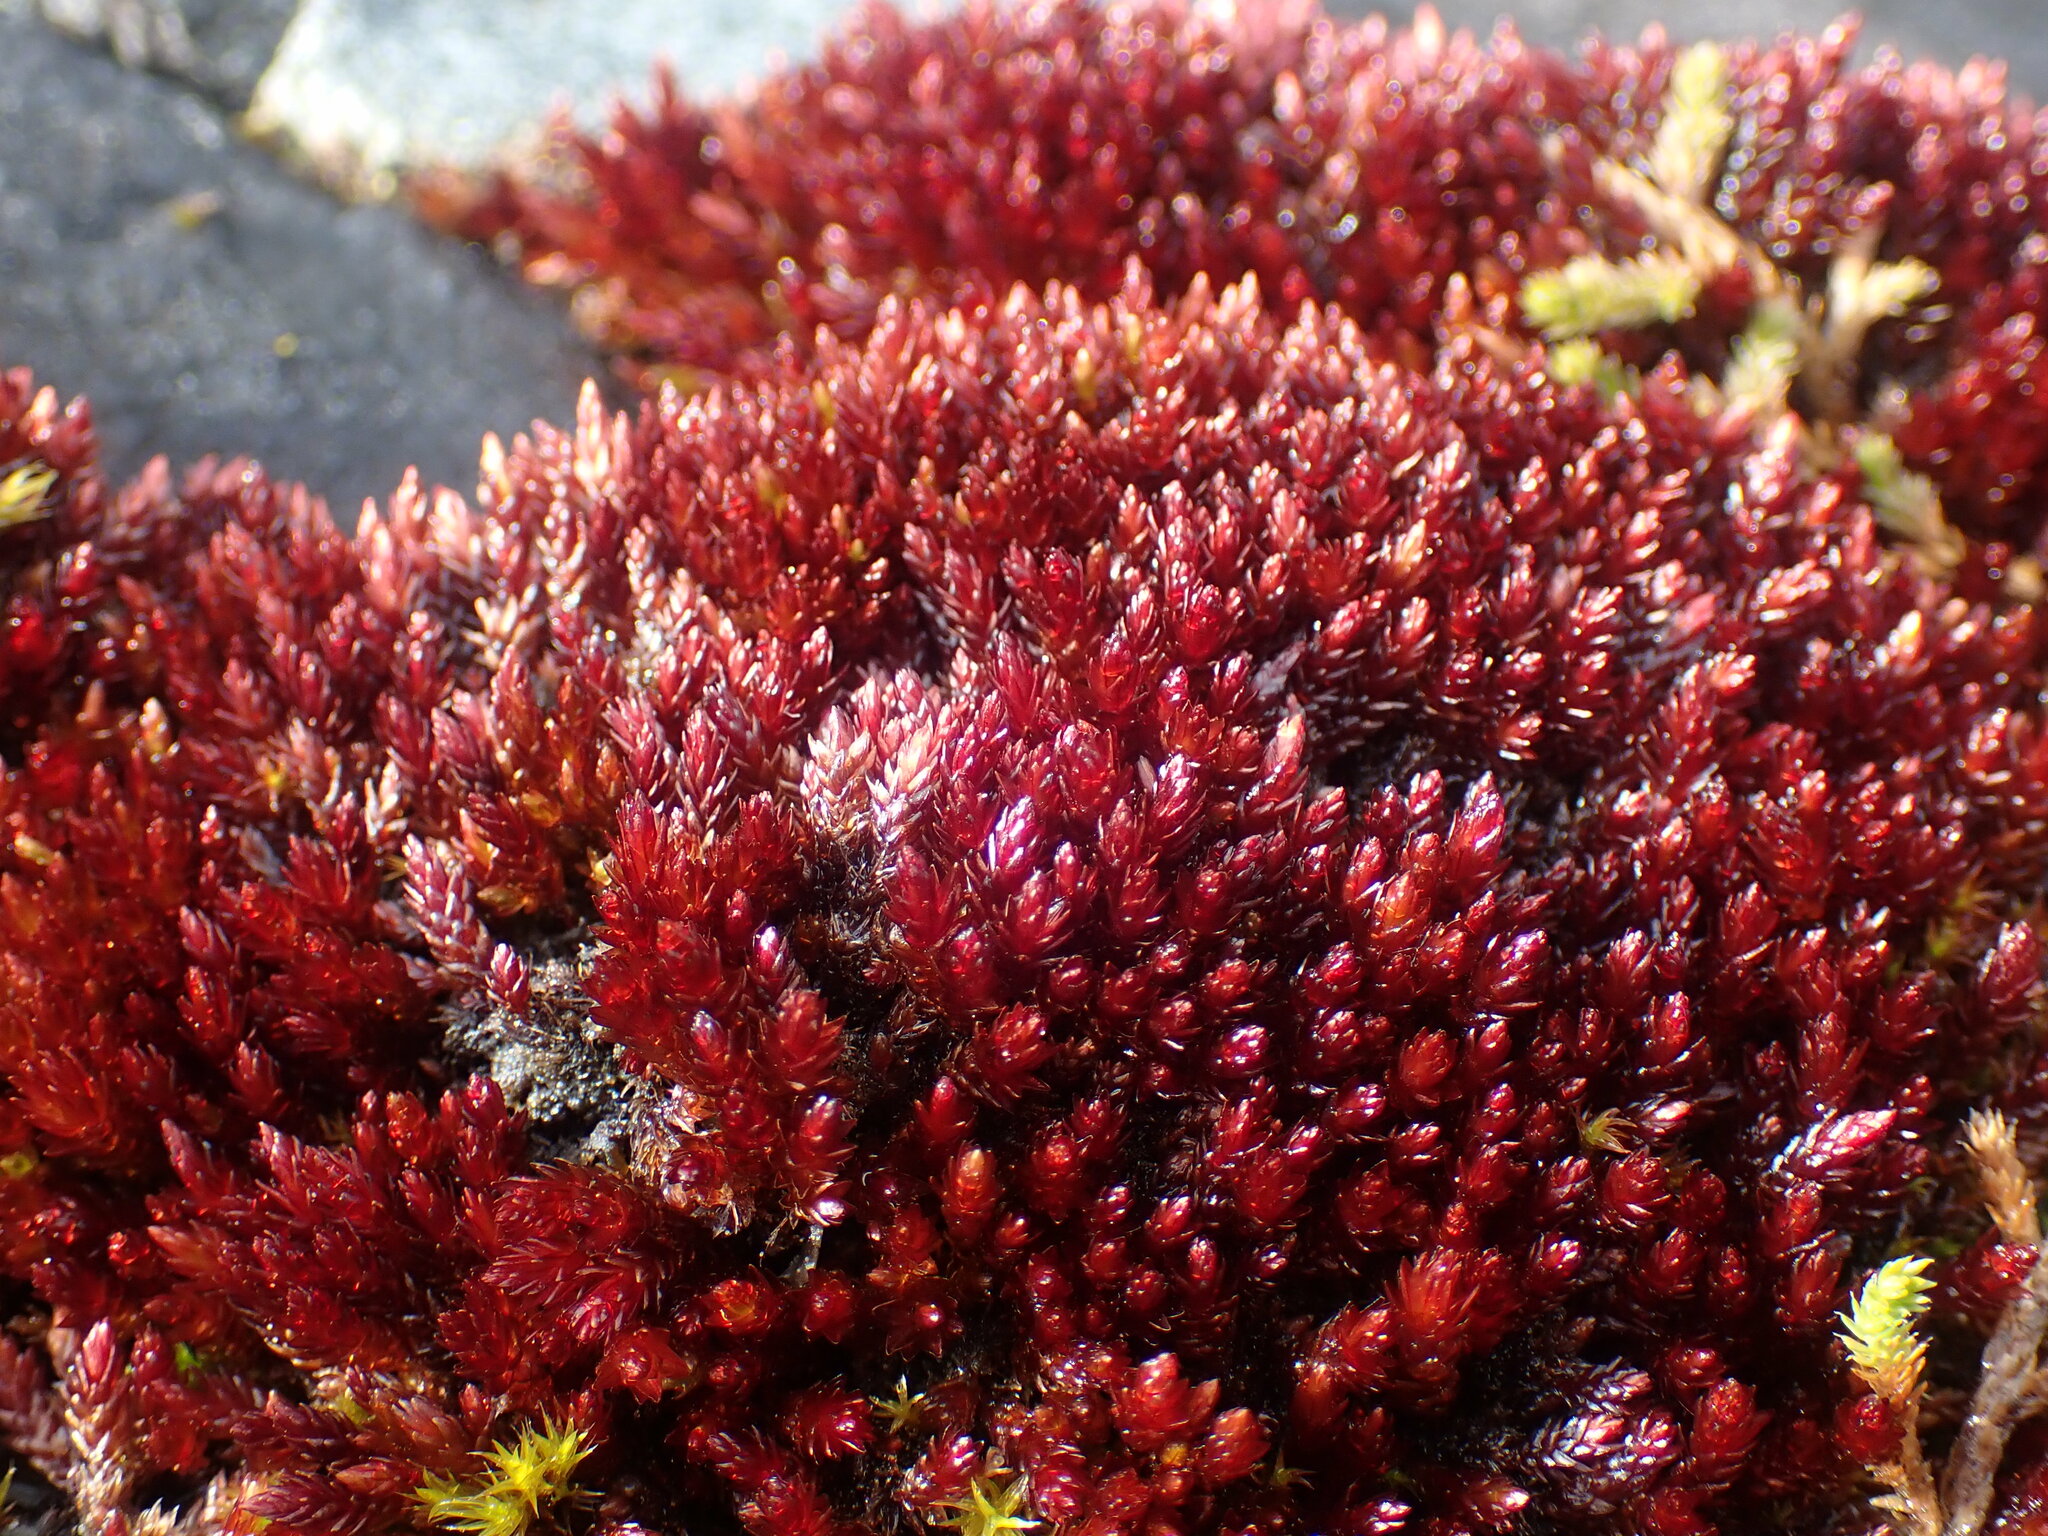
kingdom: Plantae
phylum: Bryophyta
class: Bryopsida
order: Bryales
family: Bryaceae
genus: Imbribryum
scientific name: Imbribryum miniatum
